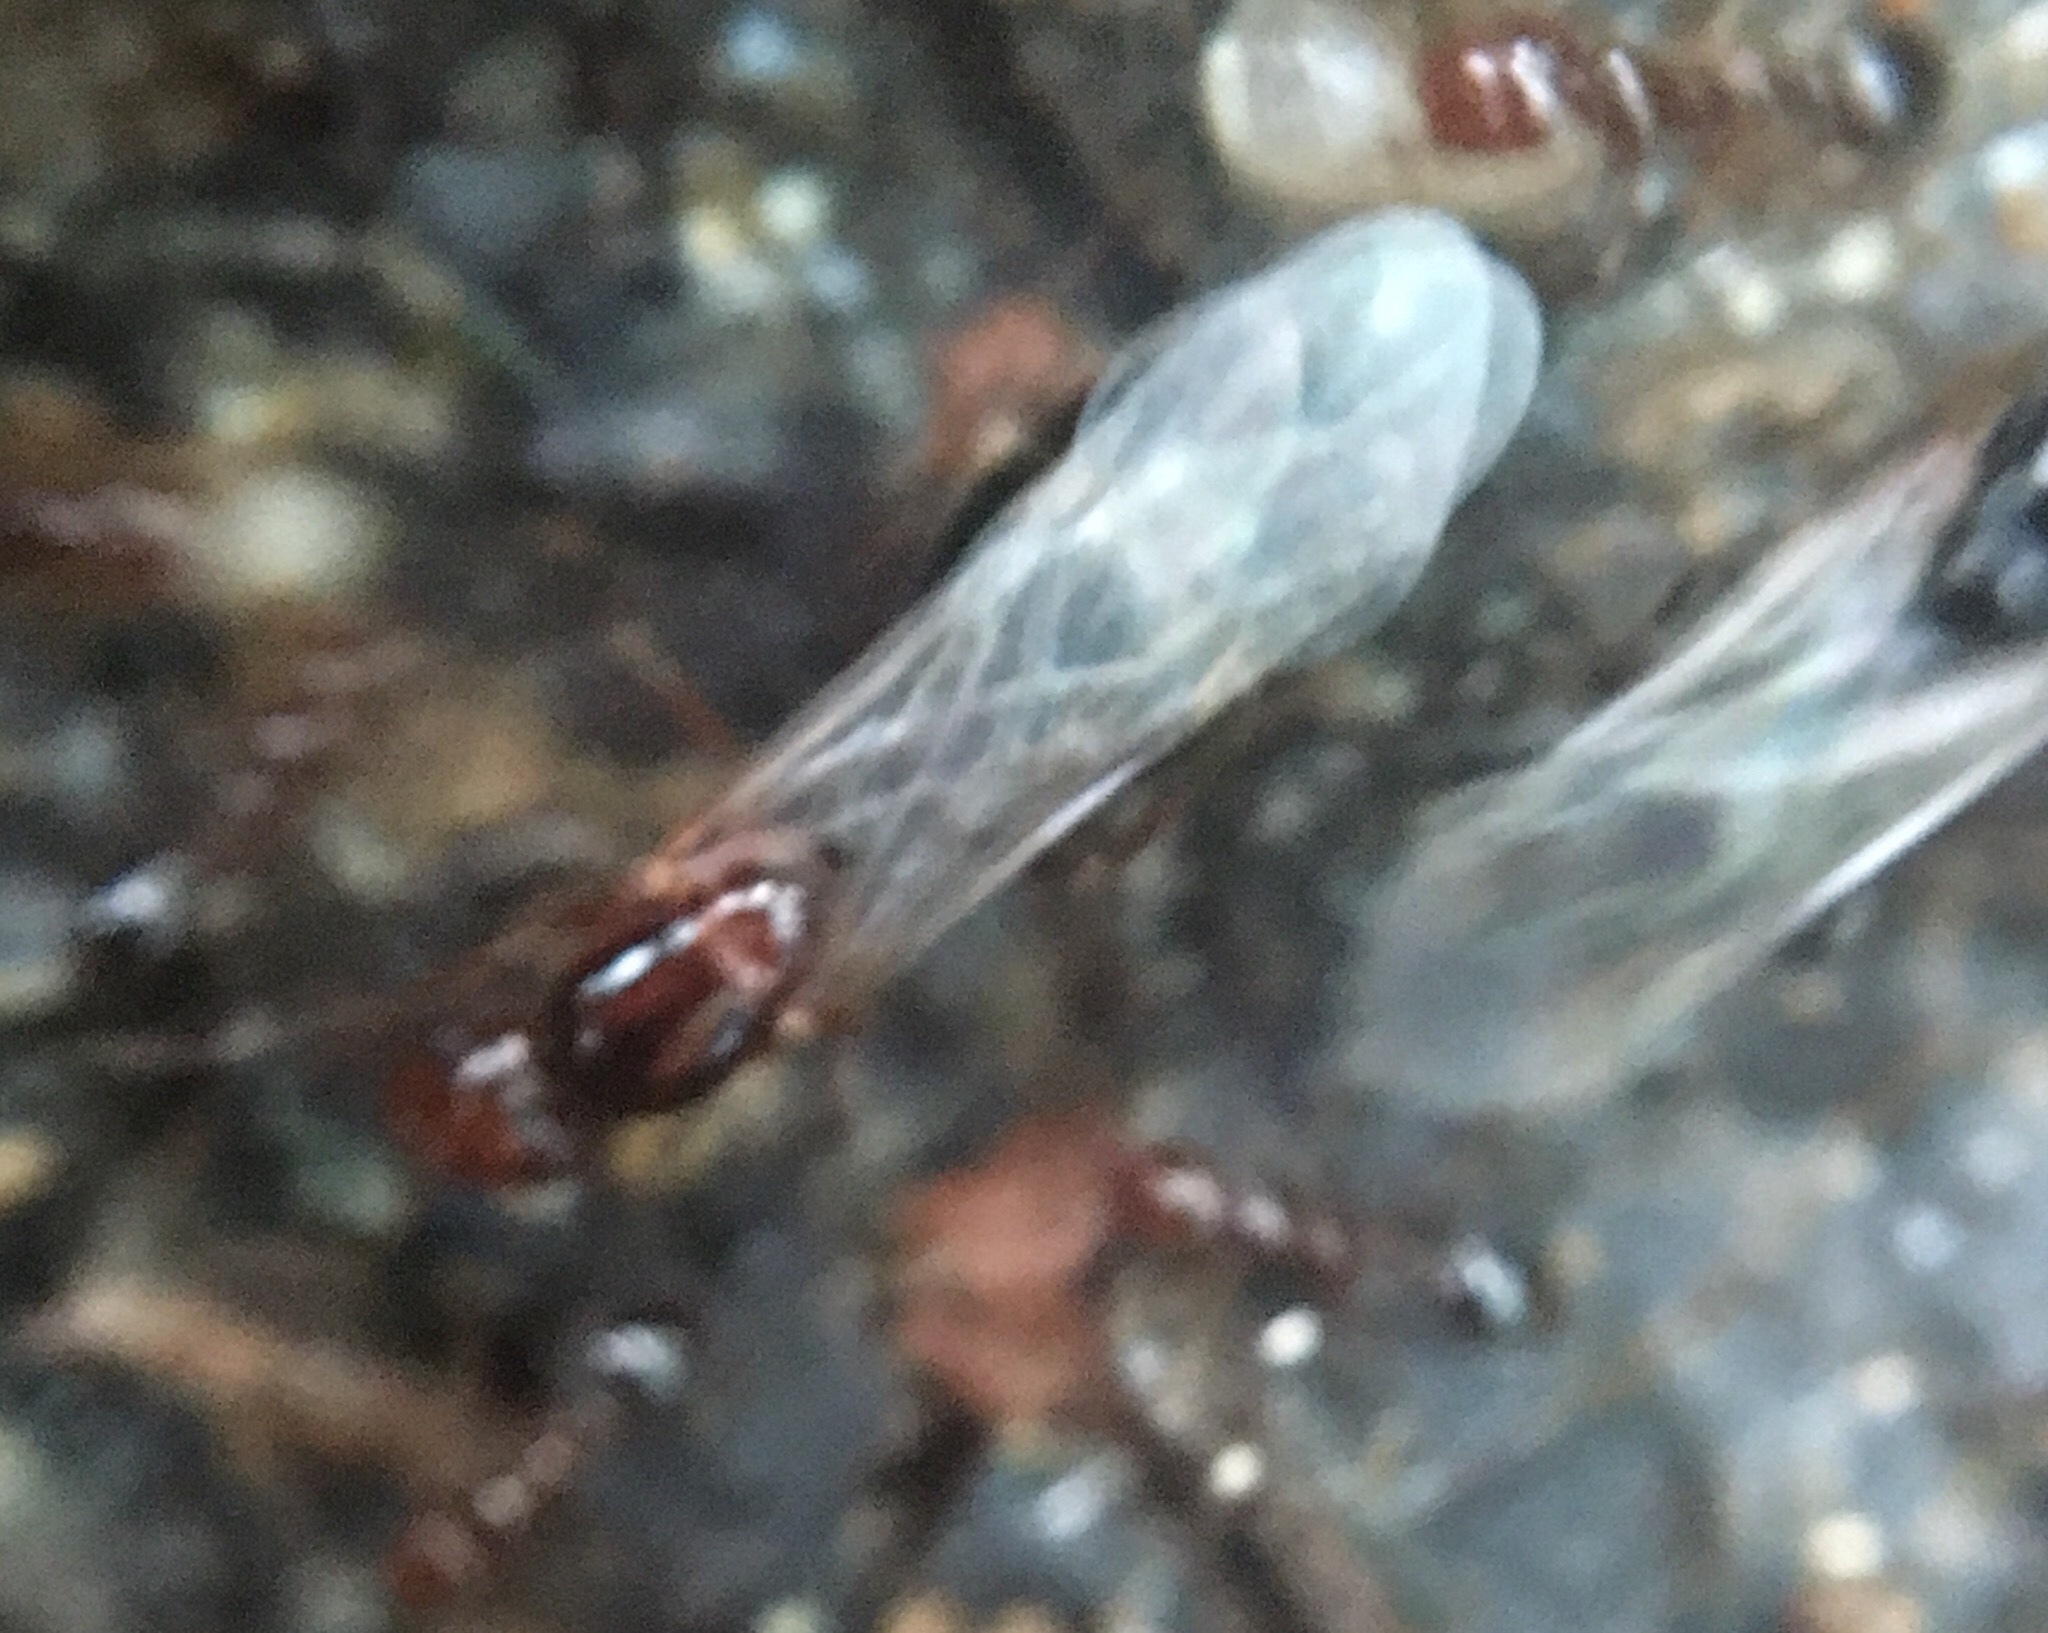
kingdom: Animalia
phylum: Arthropoda
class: Insecta
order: Hymenoptera
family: Formicidae
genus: Solenopsis
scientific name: Solenopsis invicta
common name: Red imported fire ant
